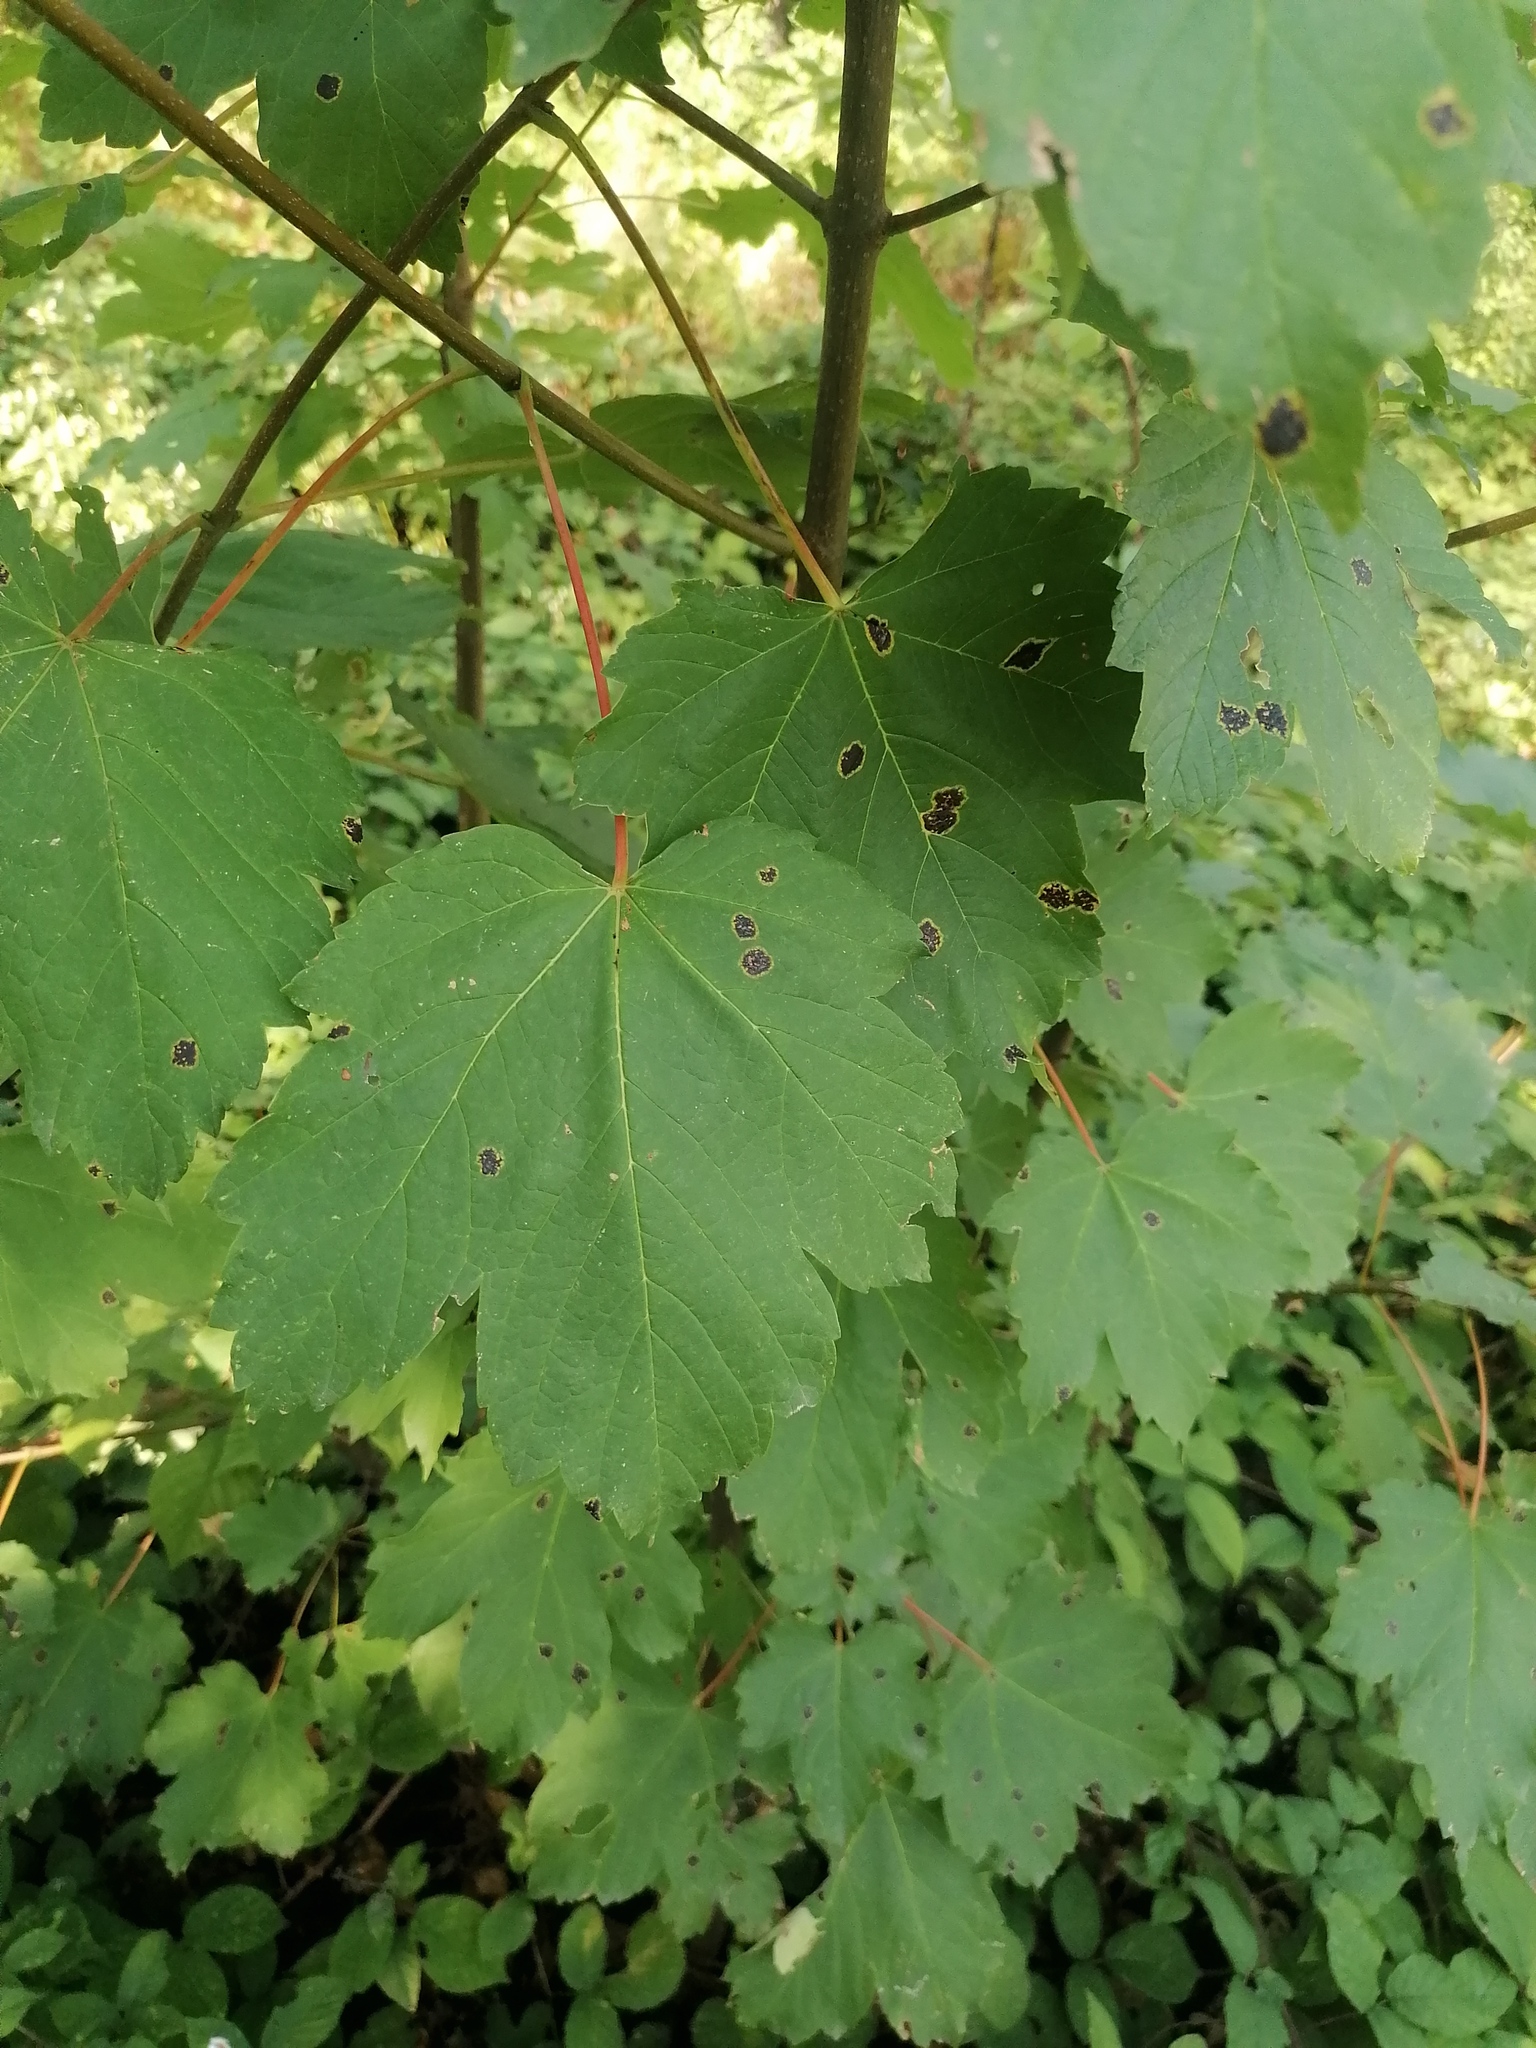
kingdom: Plantae
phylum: Tracheophyta
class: Magnoliopsida
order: Sapindales
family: Sapindaceae
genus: Acer
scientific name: Acer pseudoplatanus
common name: Sycamore
